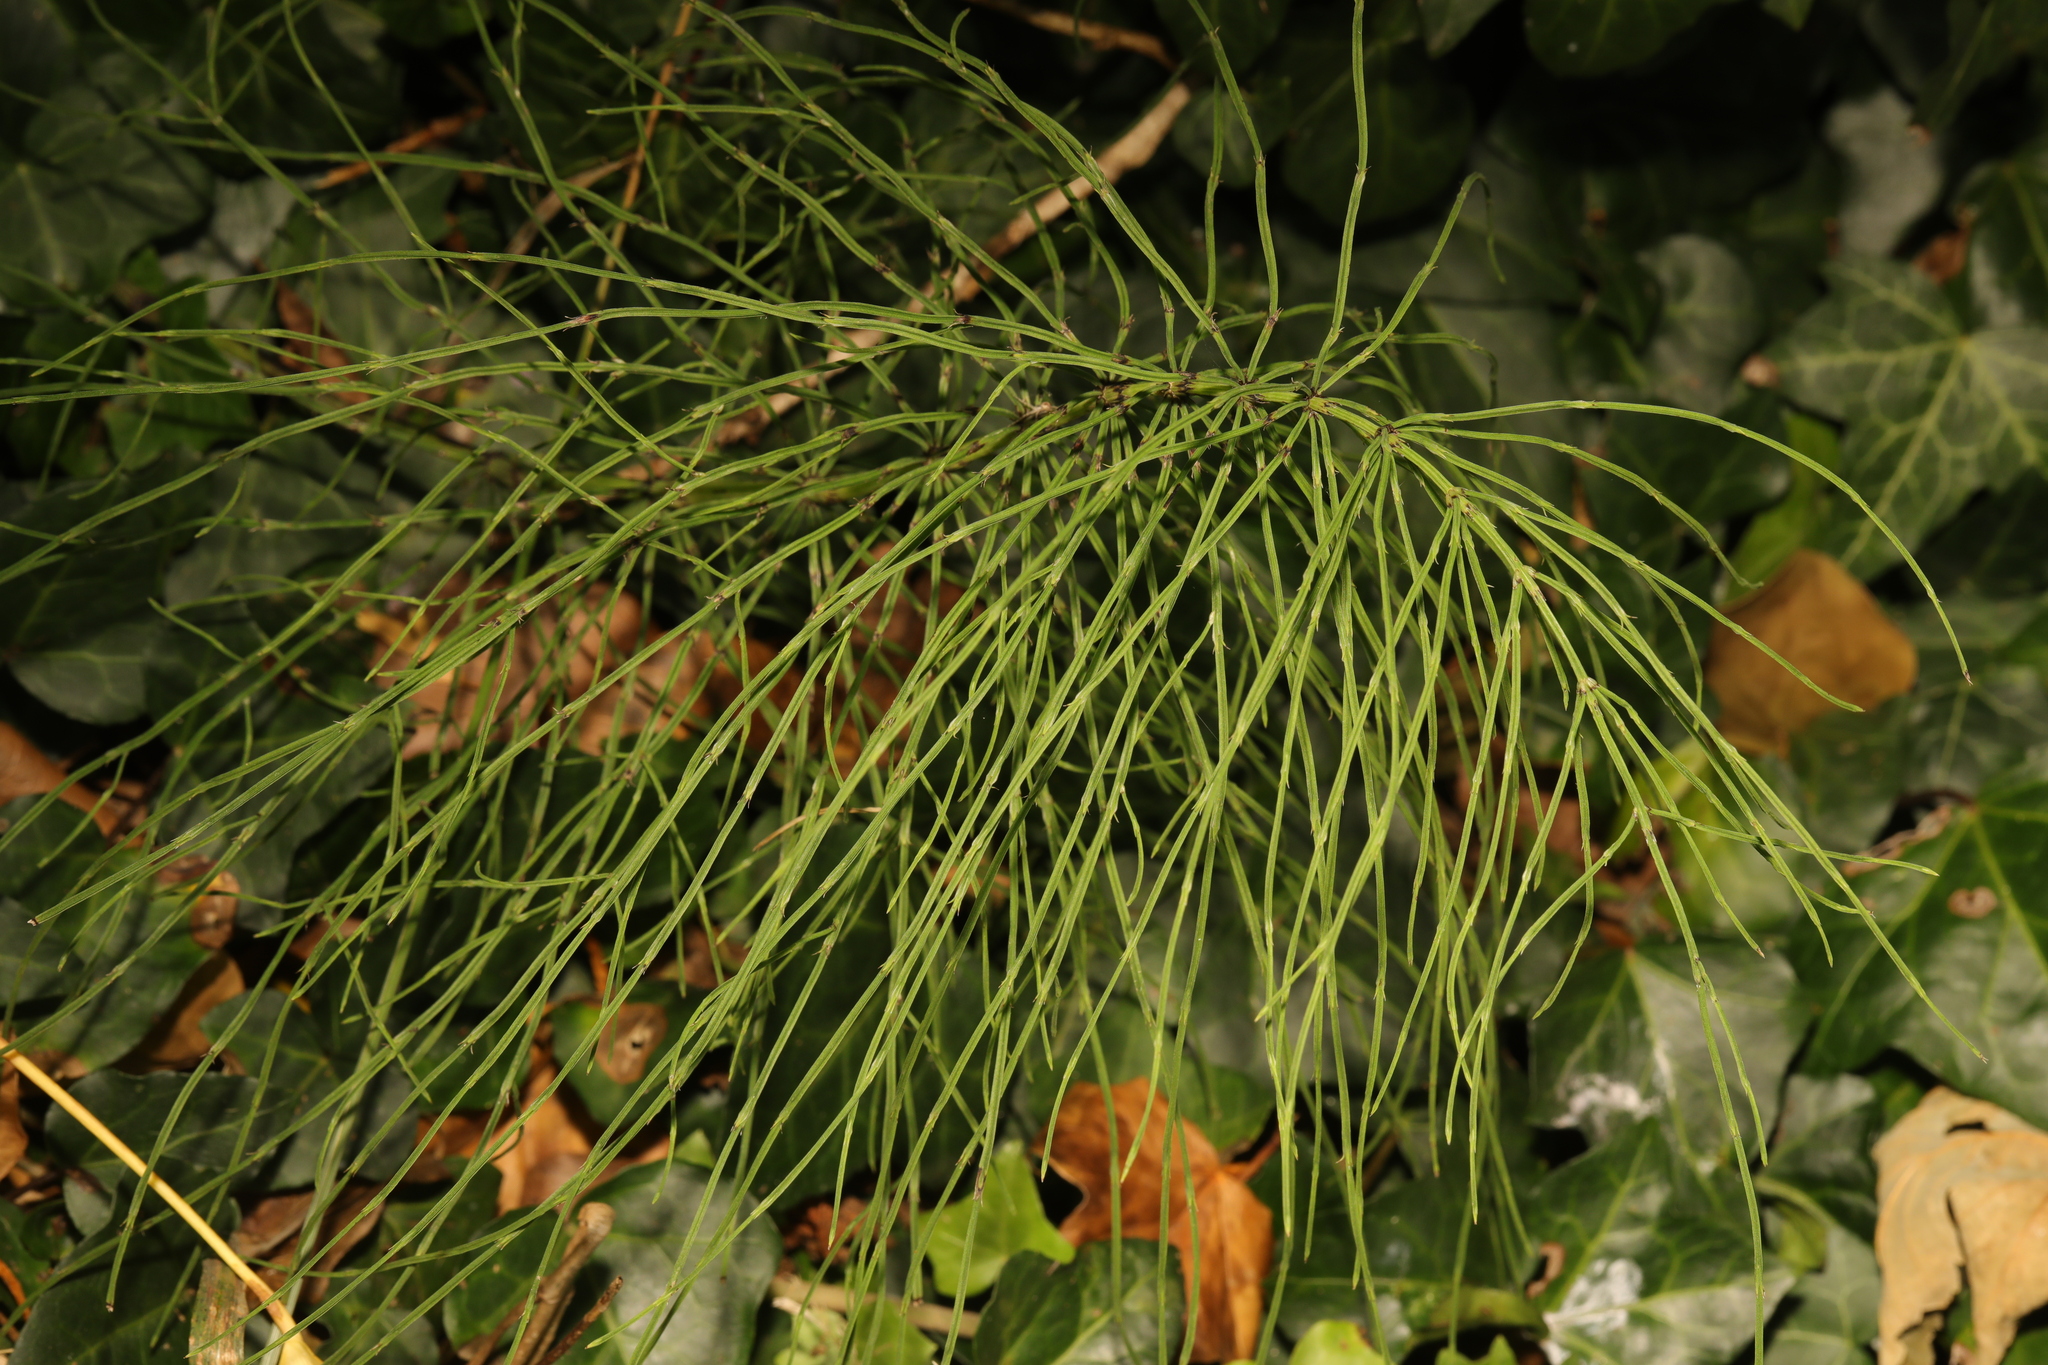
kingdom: Plantae
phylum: Tracheophyta
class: Polypodiopsida
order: Equisetales
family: Equisetaceae
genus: Equisetum
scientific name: Equisetum arvense
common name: Field horsetail
